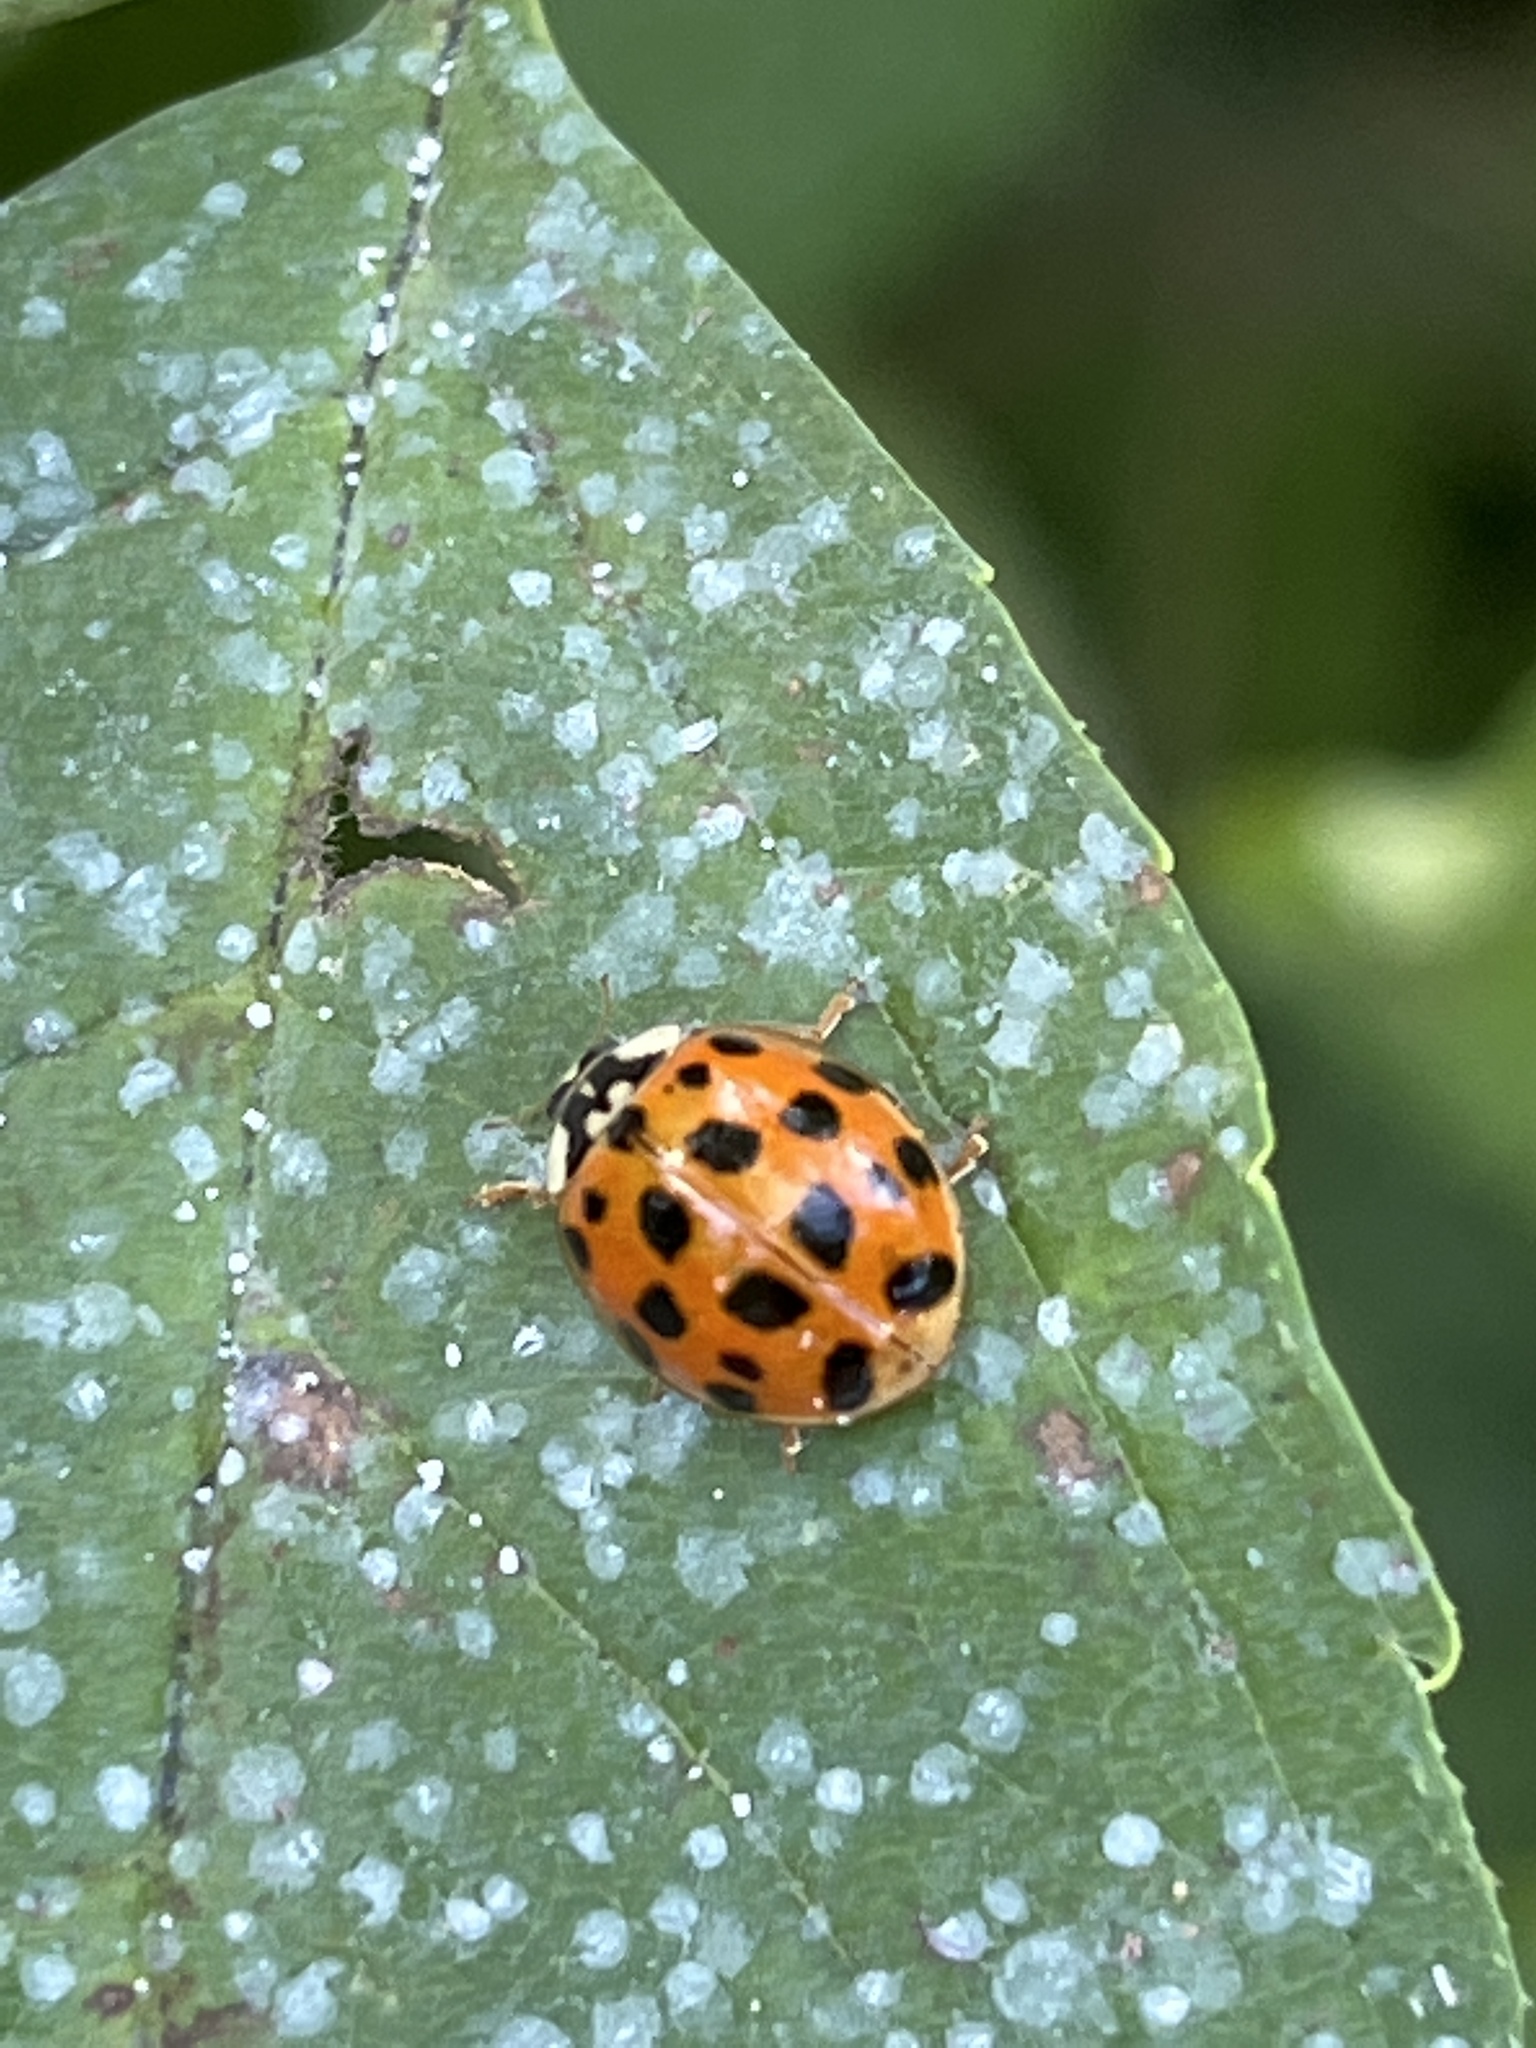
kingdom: Animalia
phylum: Arthropoda
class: Insecta
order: Coleoptera
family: Coccinellidae
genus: Harmonia
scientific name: Harmonia axyridis
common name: Harlequin ladybird
